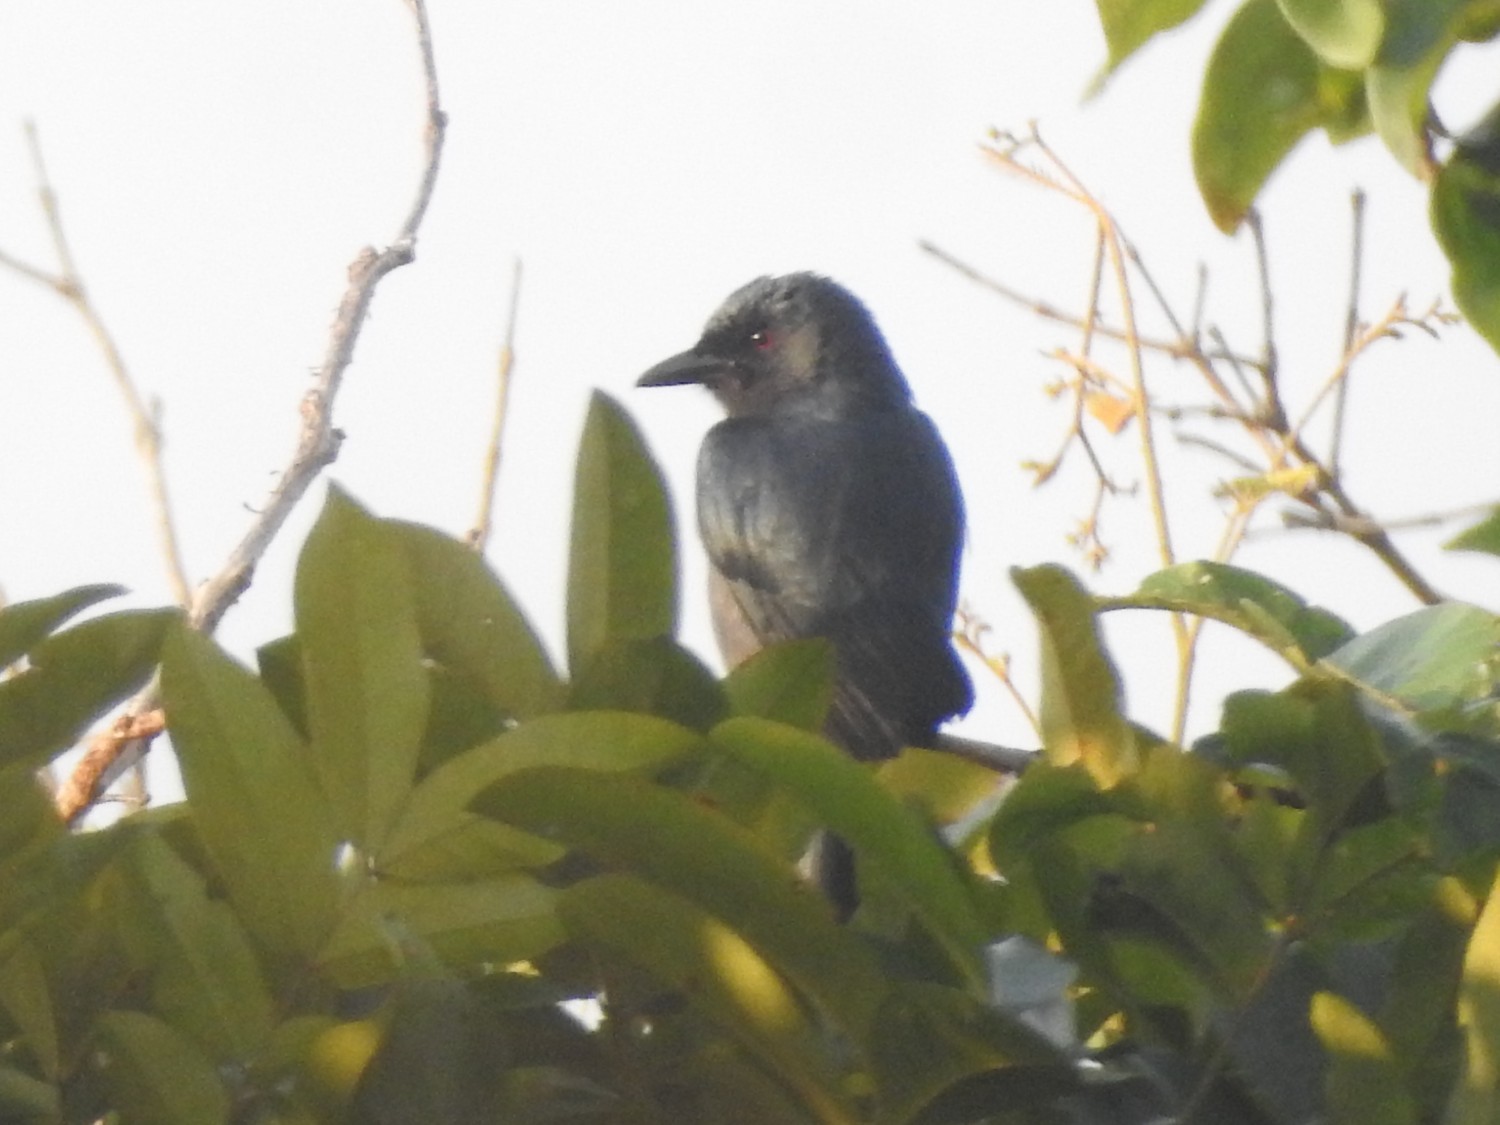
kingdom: Animalia
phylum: Chordata
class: Aves
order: Passeriformes
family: Dicruridae
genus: Dicrurus
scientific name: Dicrurus leucophaeus
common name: Ashy drongo
